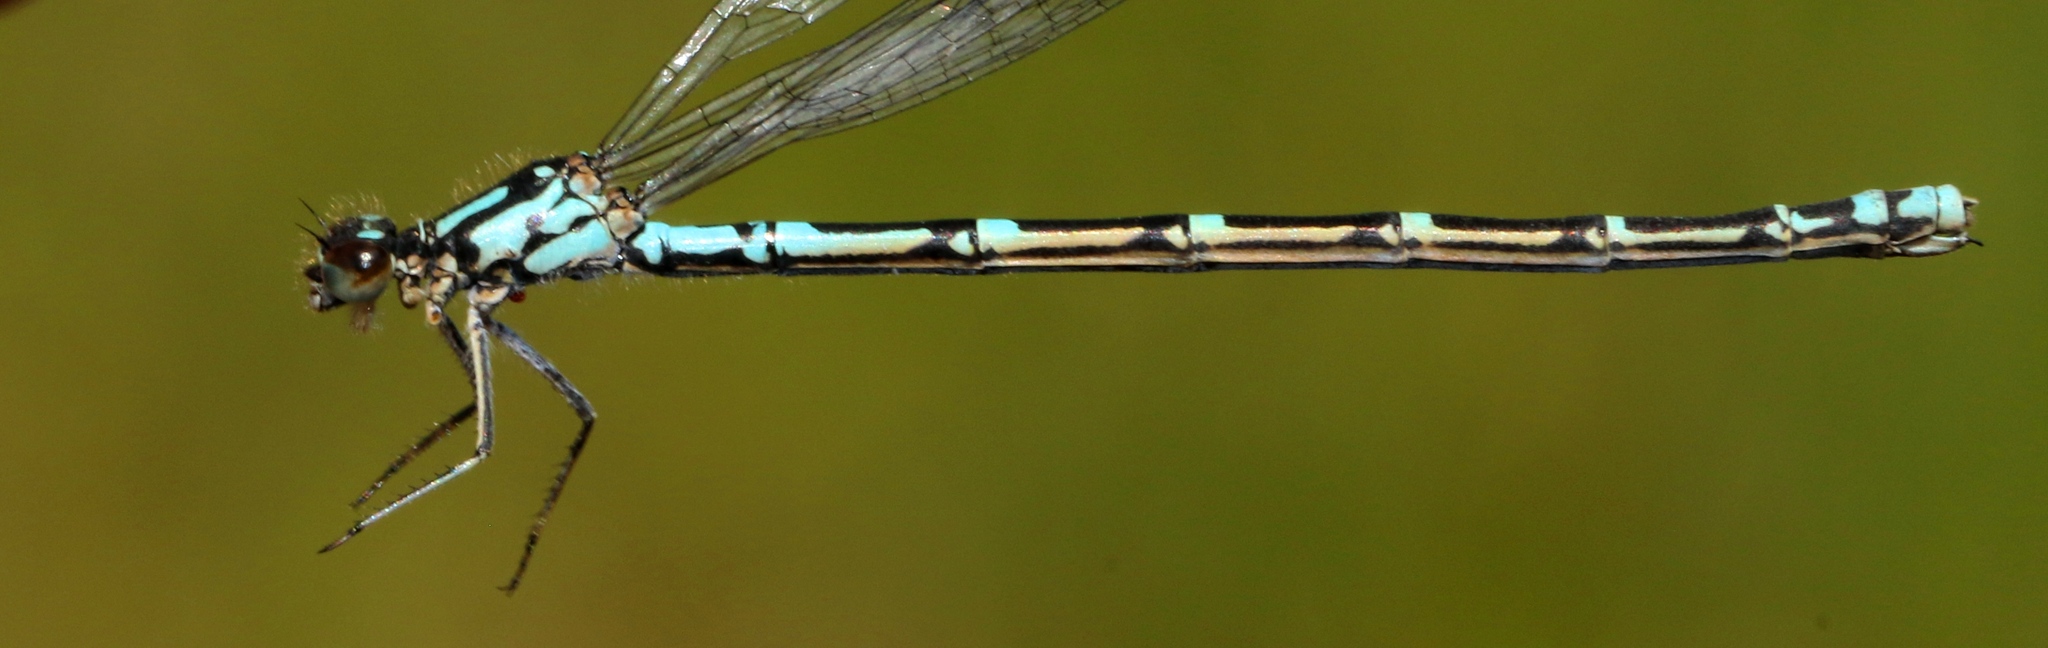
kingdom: Animalia
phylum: Arthropoda
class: Insecta
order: Odonata
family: Coenagrionidae
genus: Coenagrion
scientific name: Coenagrion interrogatum
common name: Subarctic bluet
